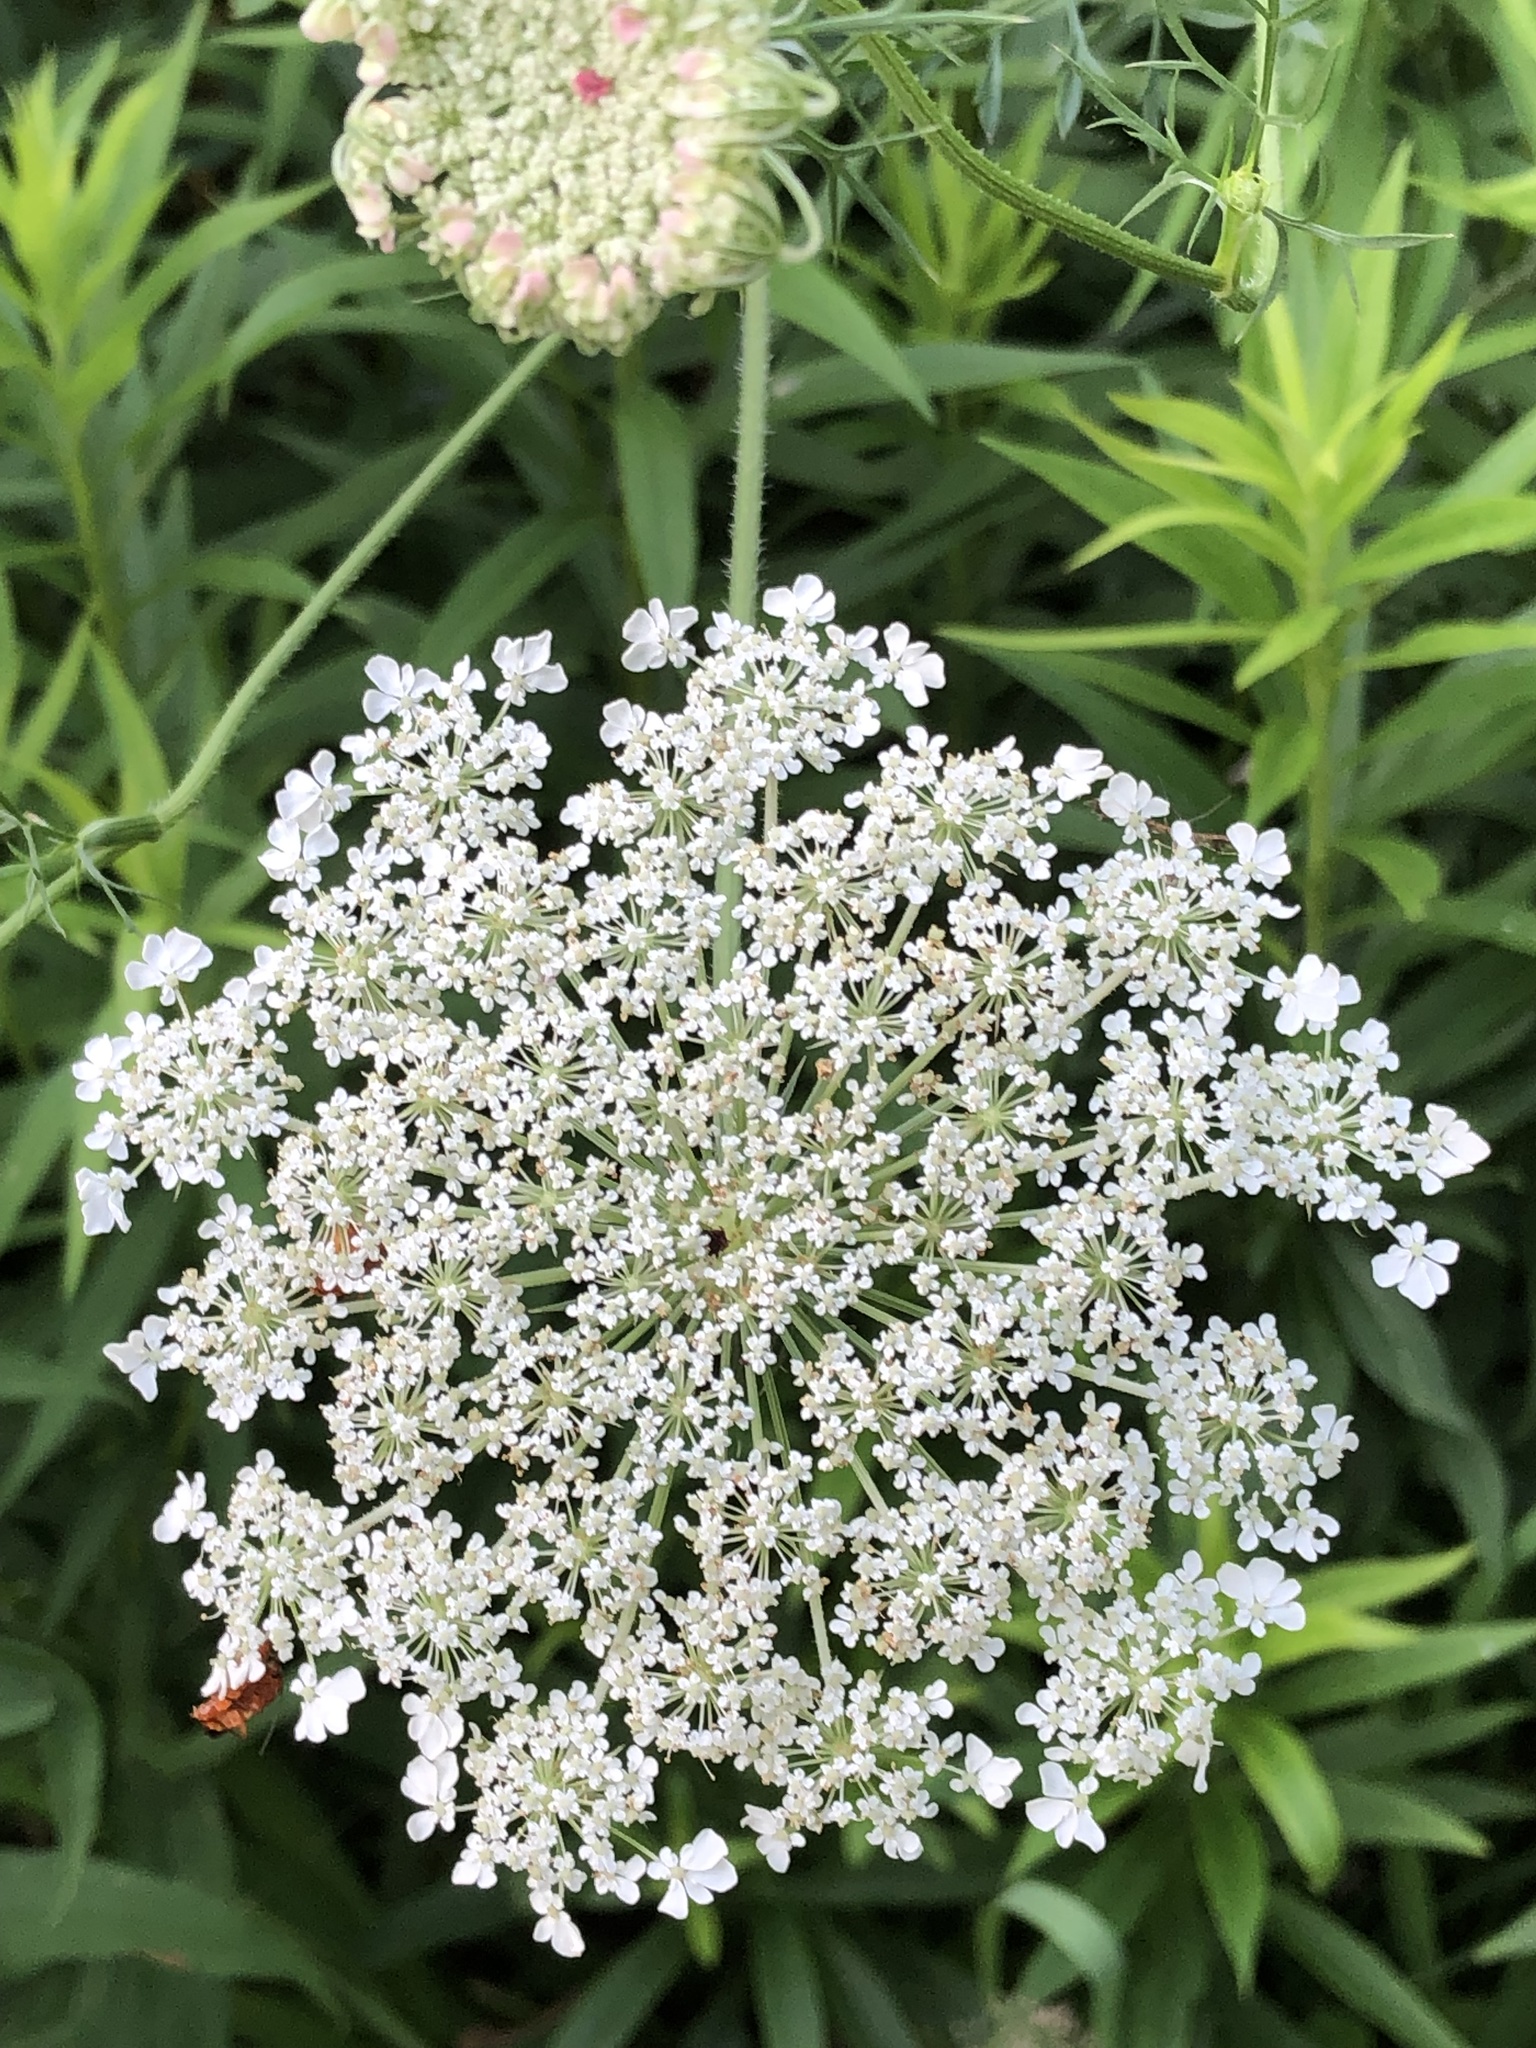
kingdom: Plantae
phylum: Tracheophyta
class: Magnoliopsida
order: Apiales
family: Apiaceae
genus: Daucus
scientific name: Daucus carota
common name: Wild carrot
